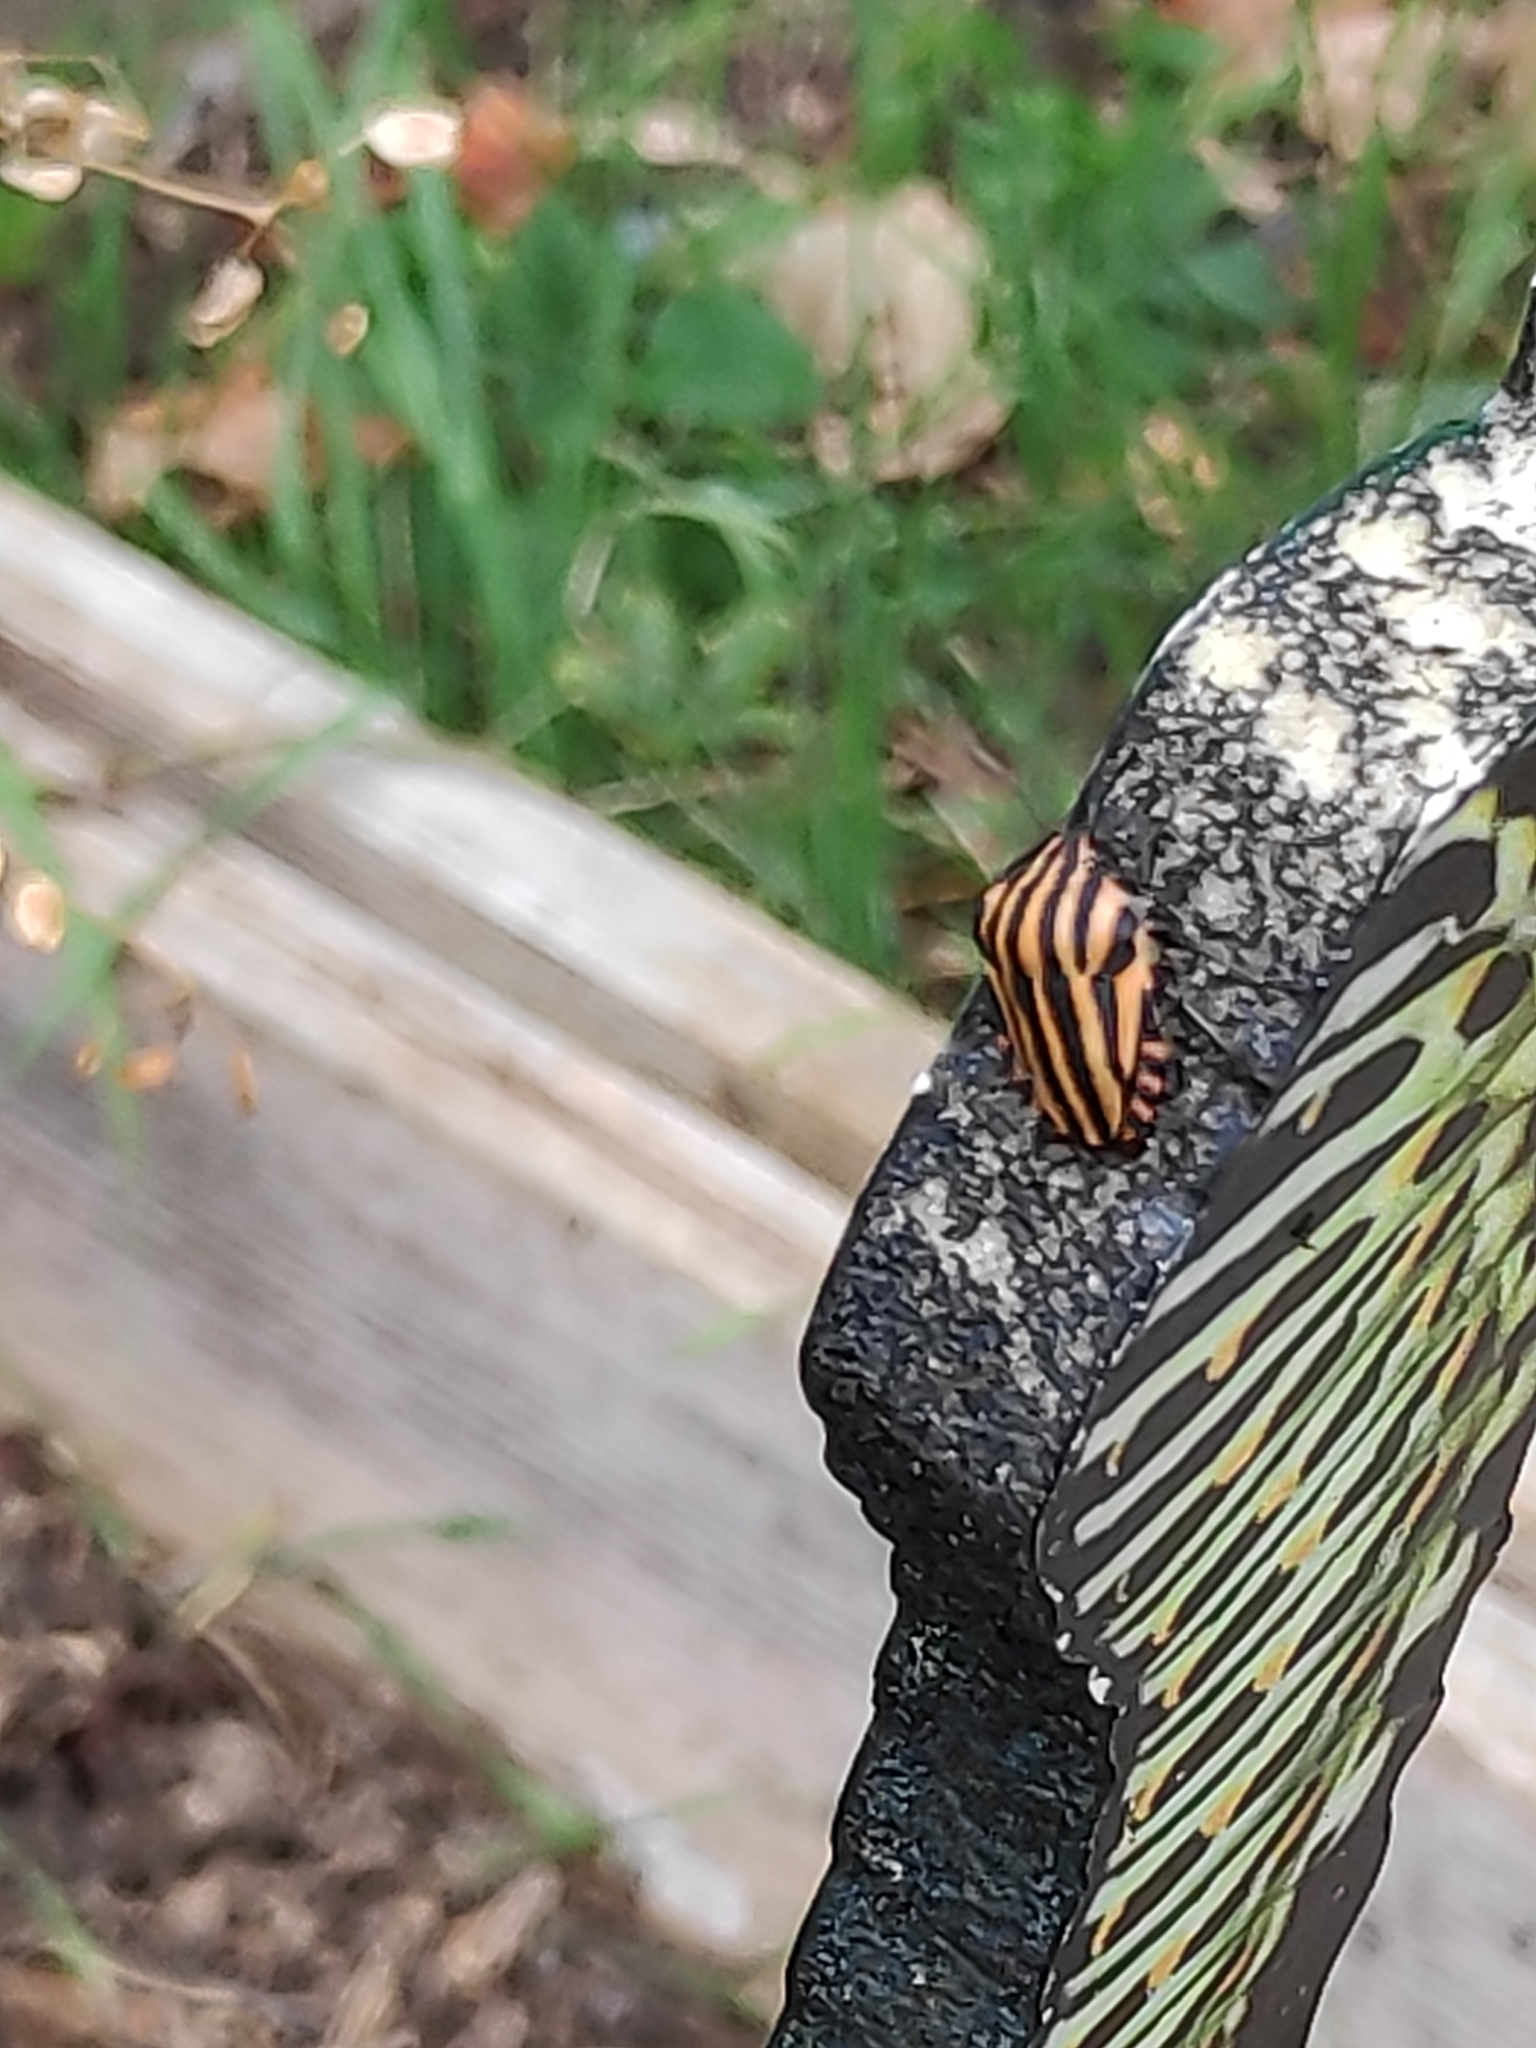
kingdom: Animalia
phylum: Arthropoda
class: Insecta
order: Hemiptera
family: Pentatomidae
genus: Graphosoma
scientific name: Graphosoma italicum
